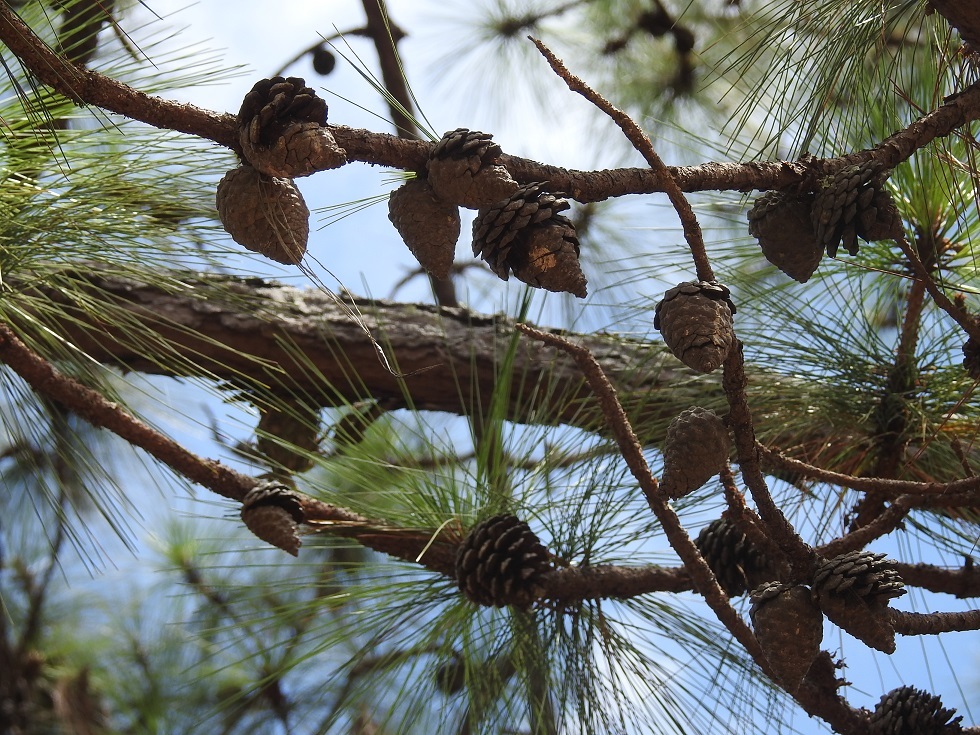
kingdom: Plantae
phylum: Tracheophyta
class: Pinopsida
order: Pinales
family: Pinaceae
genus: Pinus
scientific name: Pinus oocarpa
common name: Egg-cone pine
